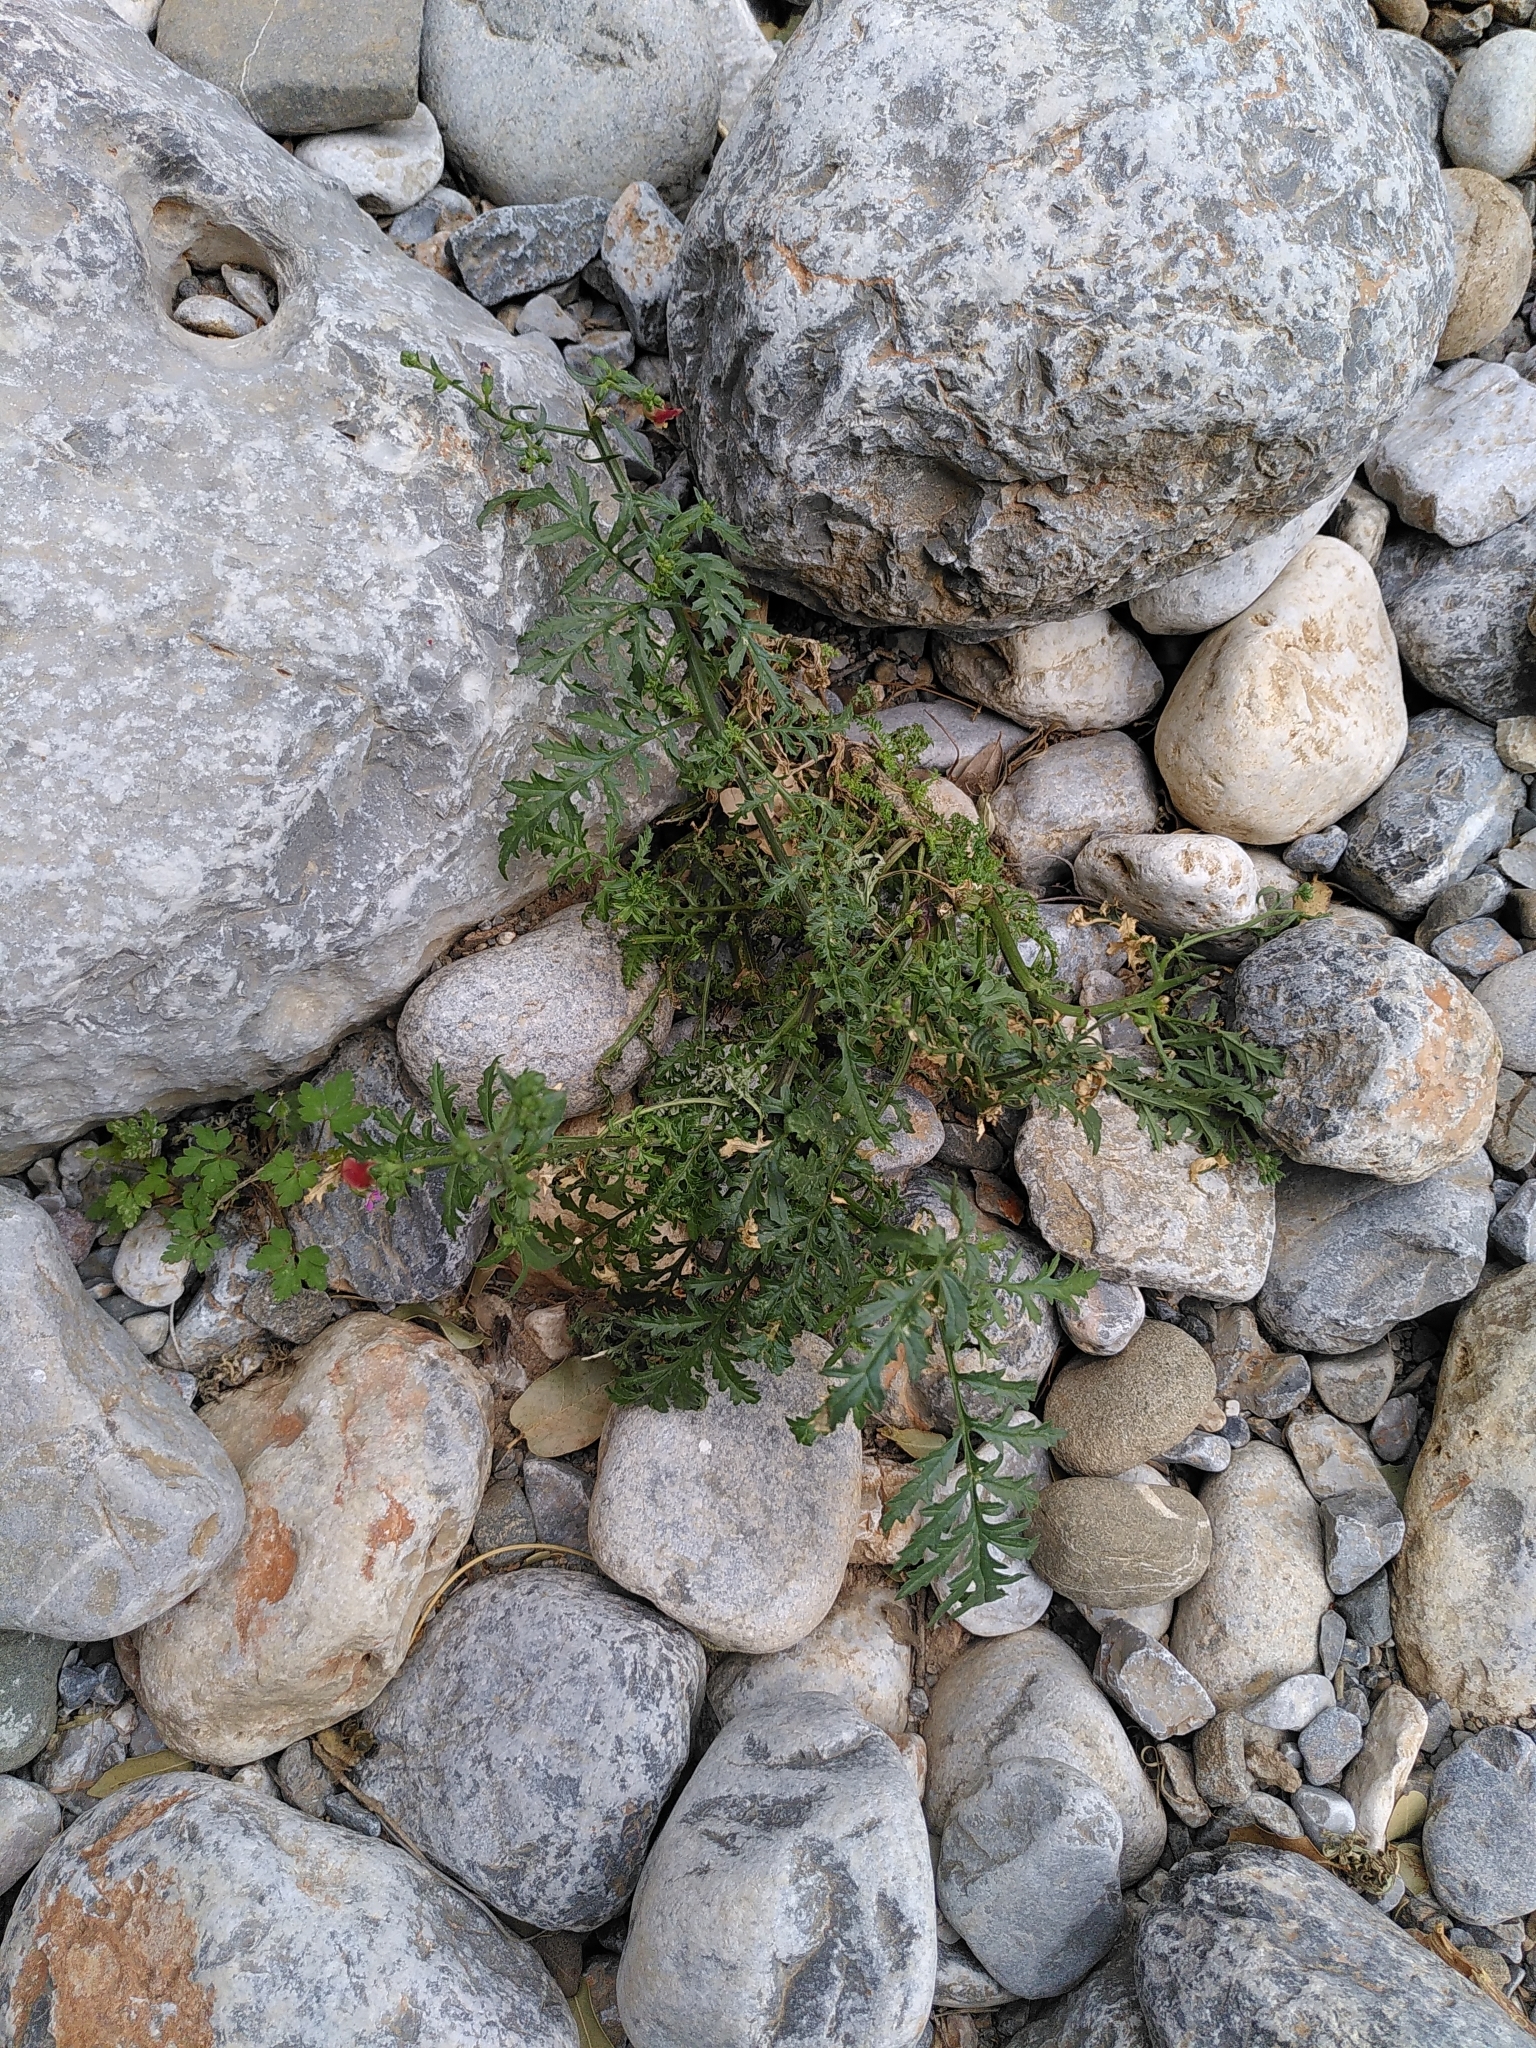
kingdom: Plantae
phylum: Tracheophyta
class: Magnoliopsida
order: Lamiales
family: Scrophulariaceae
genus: Scrophularia
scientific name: Scrophularia lucida
